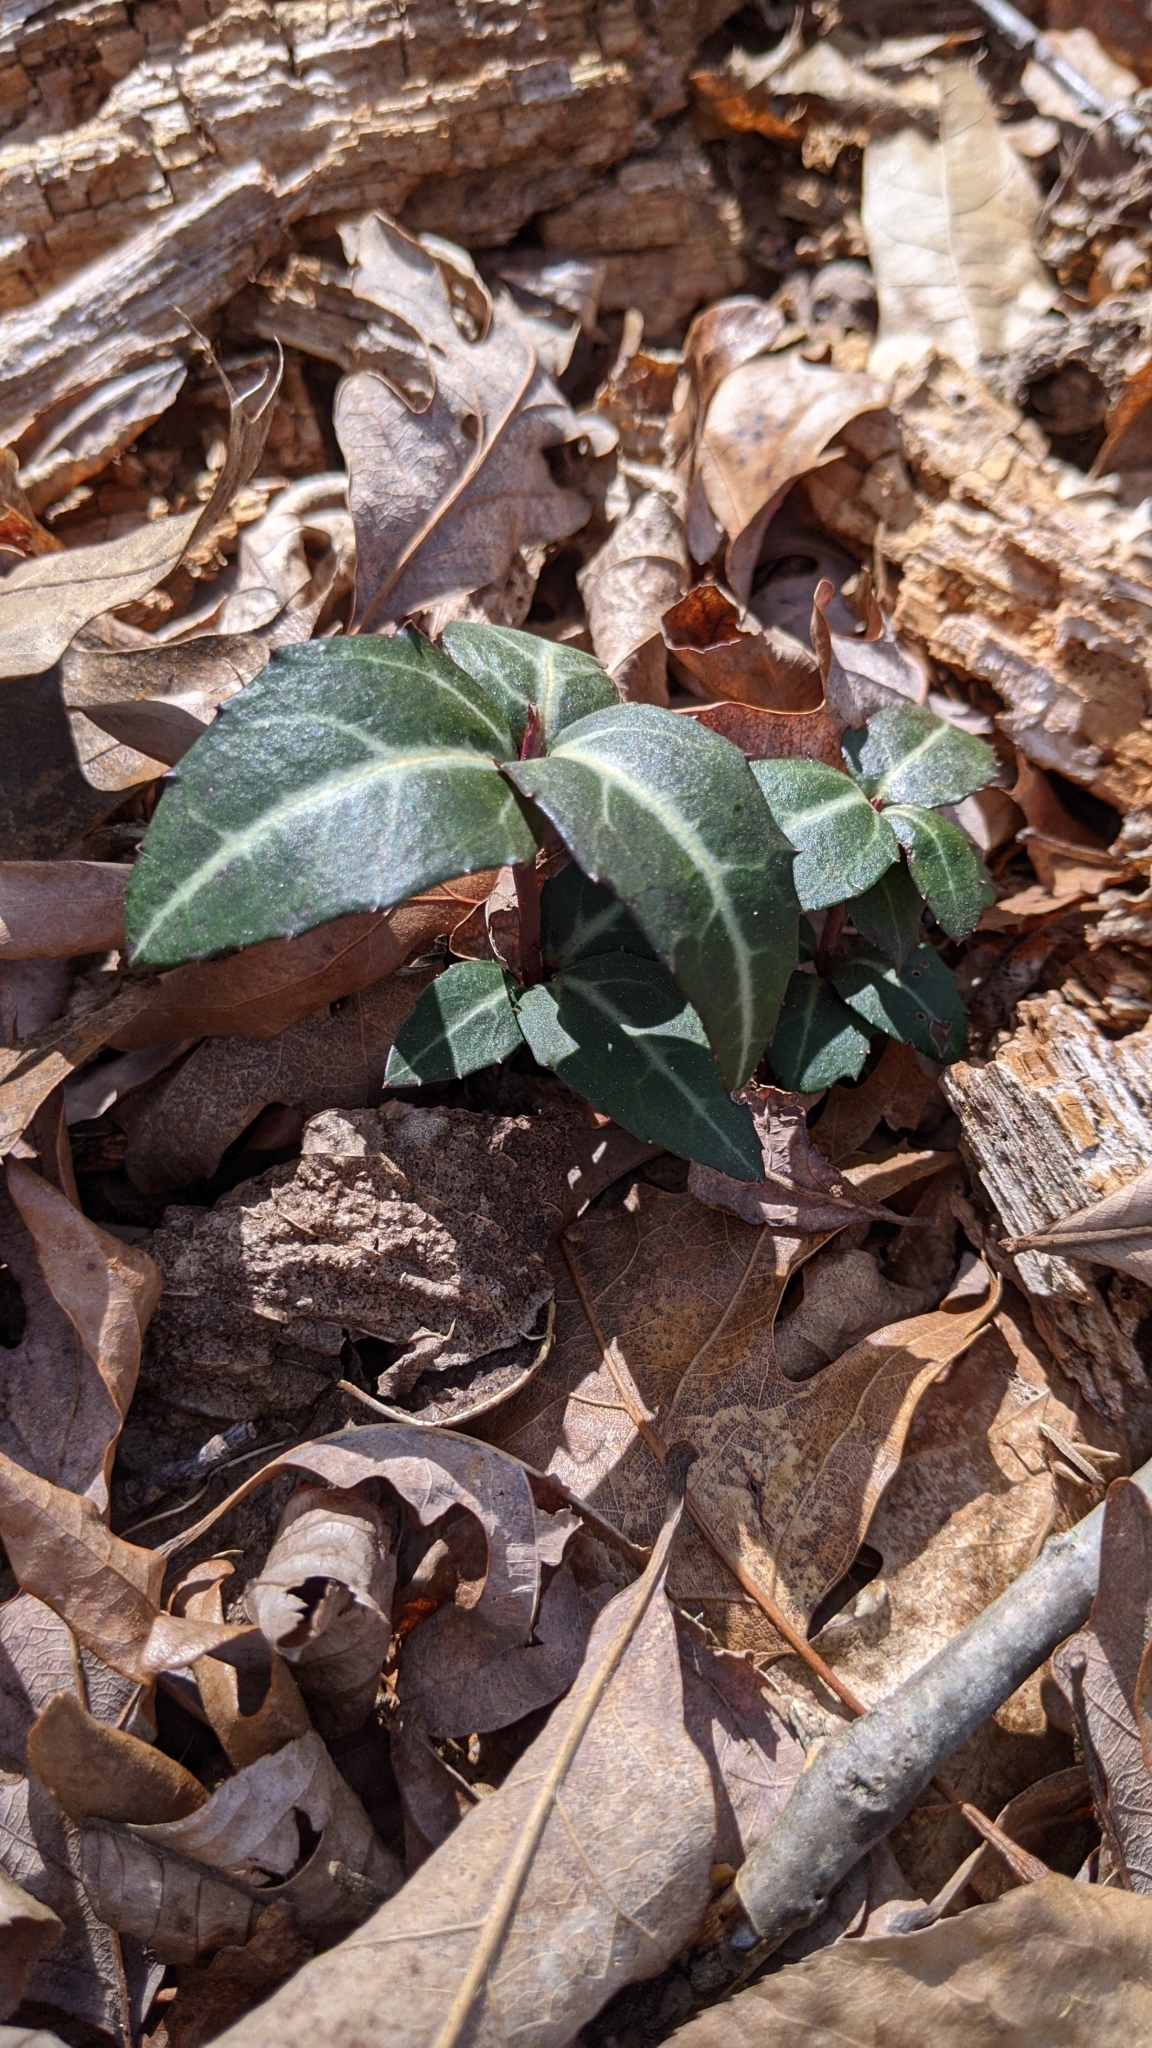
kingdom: Plantae
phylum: Tracheophyta
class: Magnoliopsida
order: Ericales
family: Ericaceae
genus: Chimaphila
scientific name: Chimaphila maculata
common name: Spotted pipsissewa
